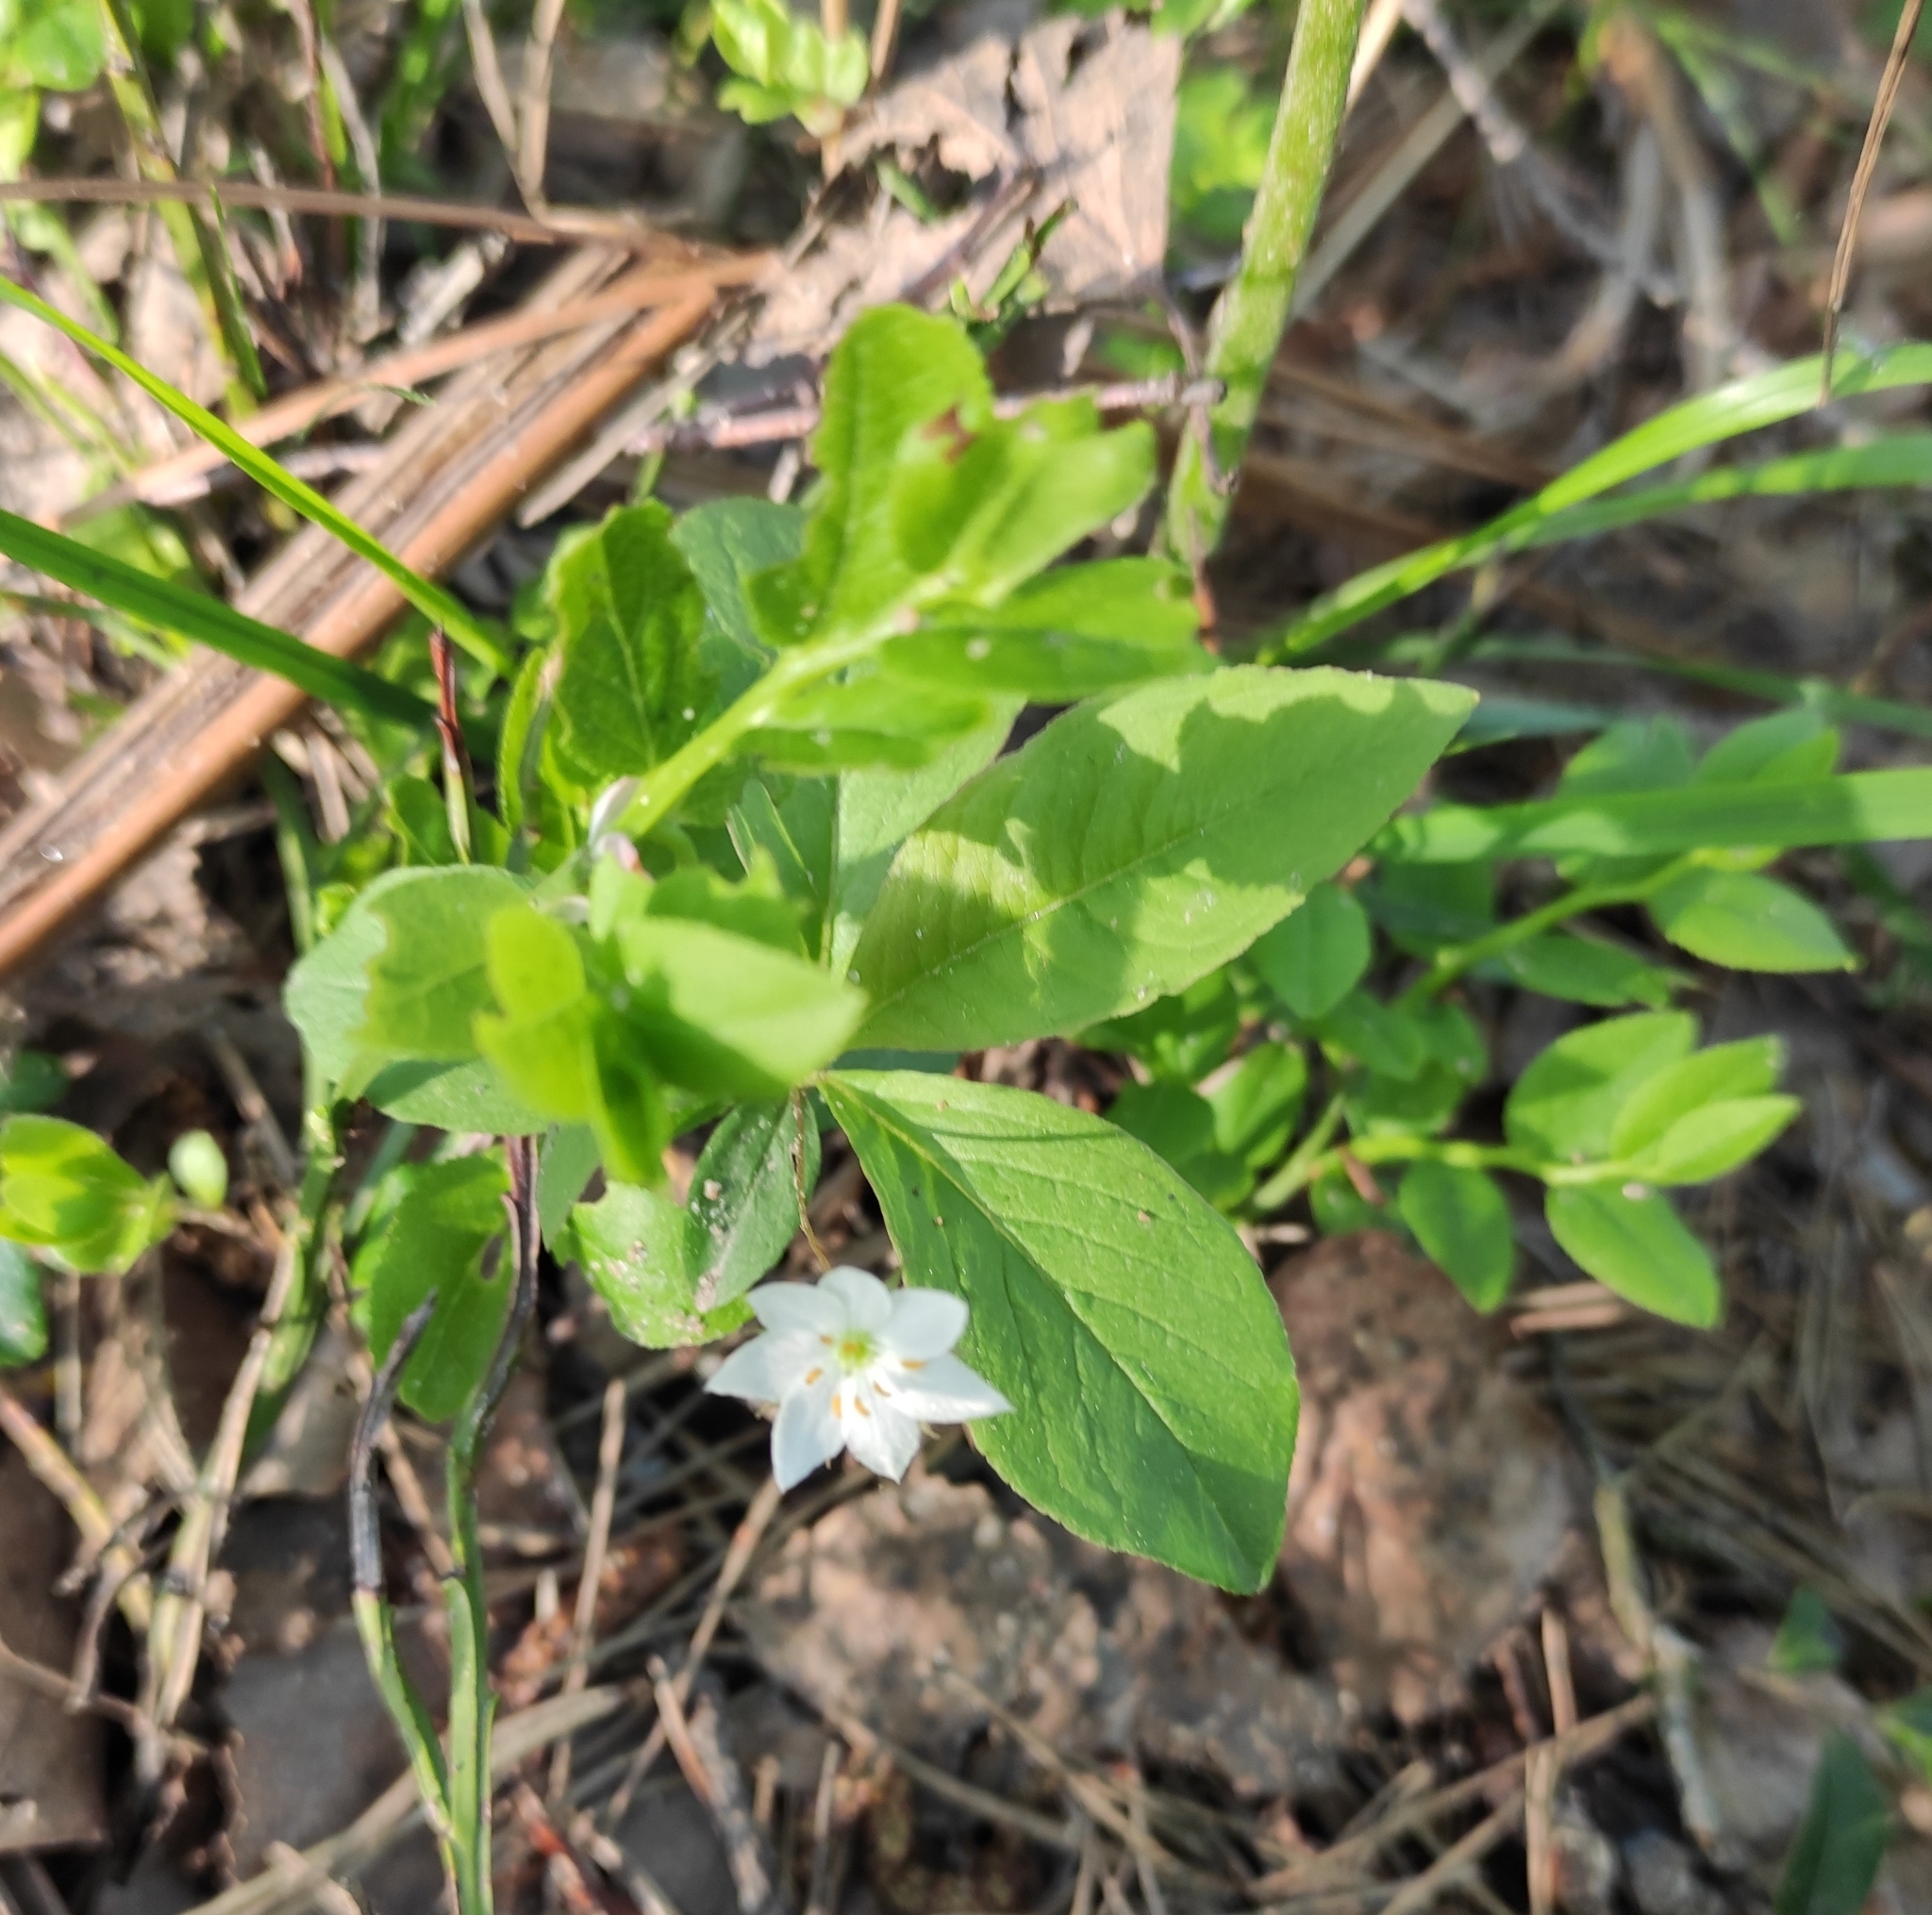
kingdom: Plantae
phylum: Tracheophyta
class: Magnoliopsida
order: Ericales
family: Primulaceae
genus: Lysimachia
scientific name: Lysimachia europaea
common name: Arctic starflower
